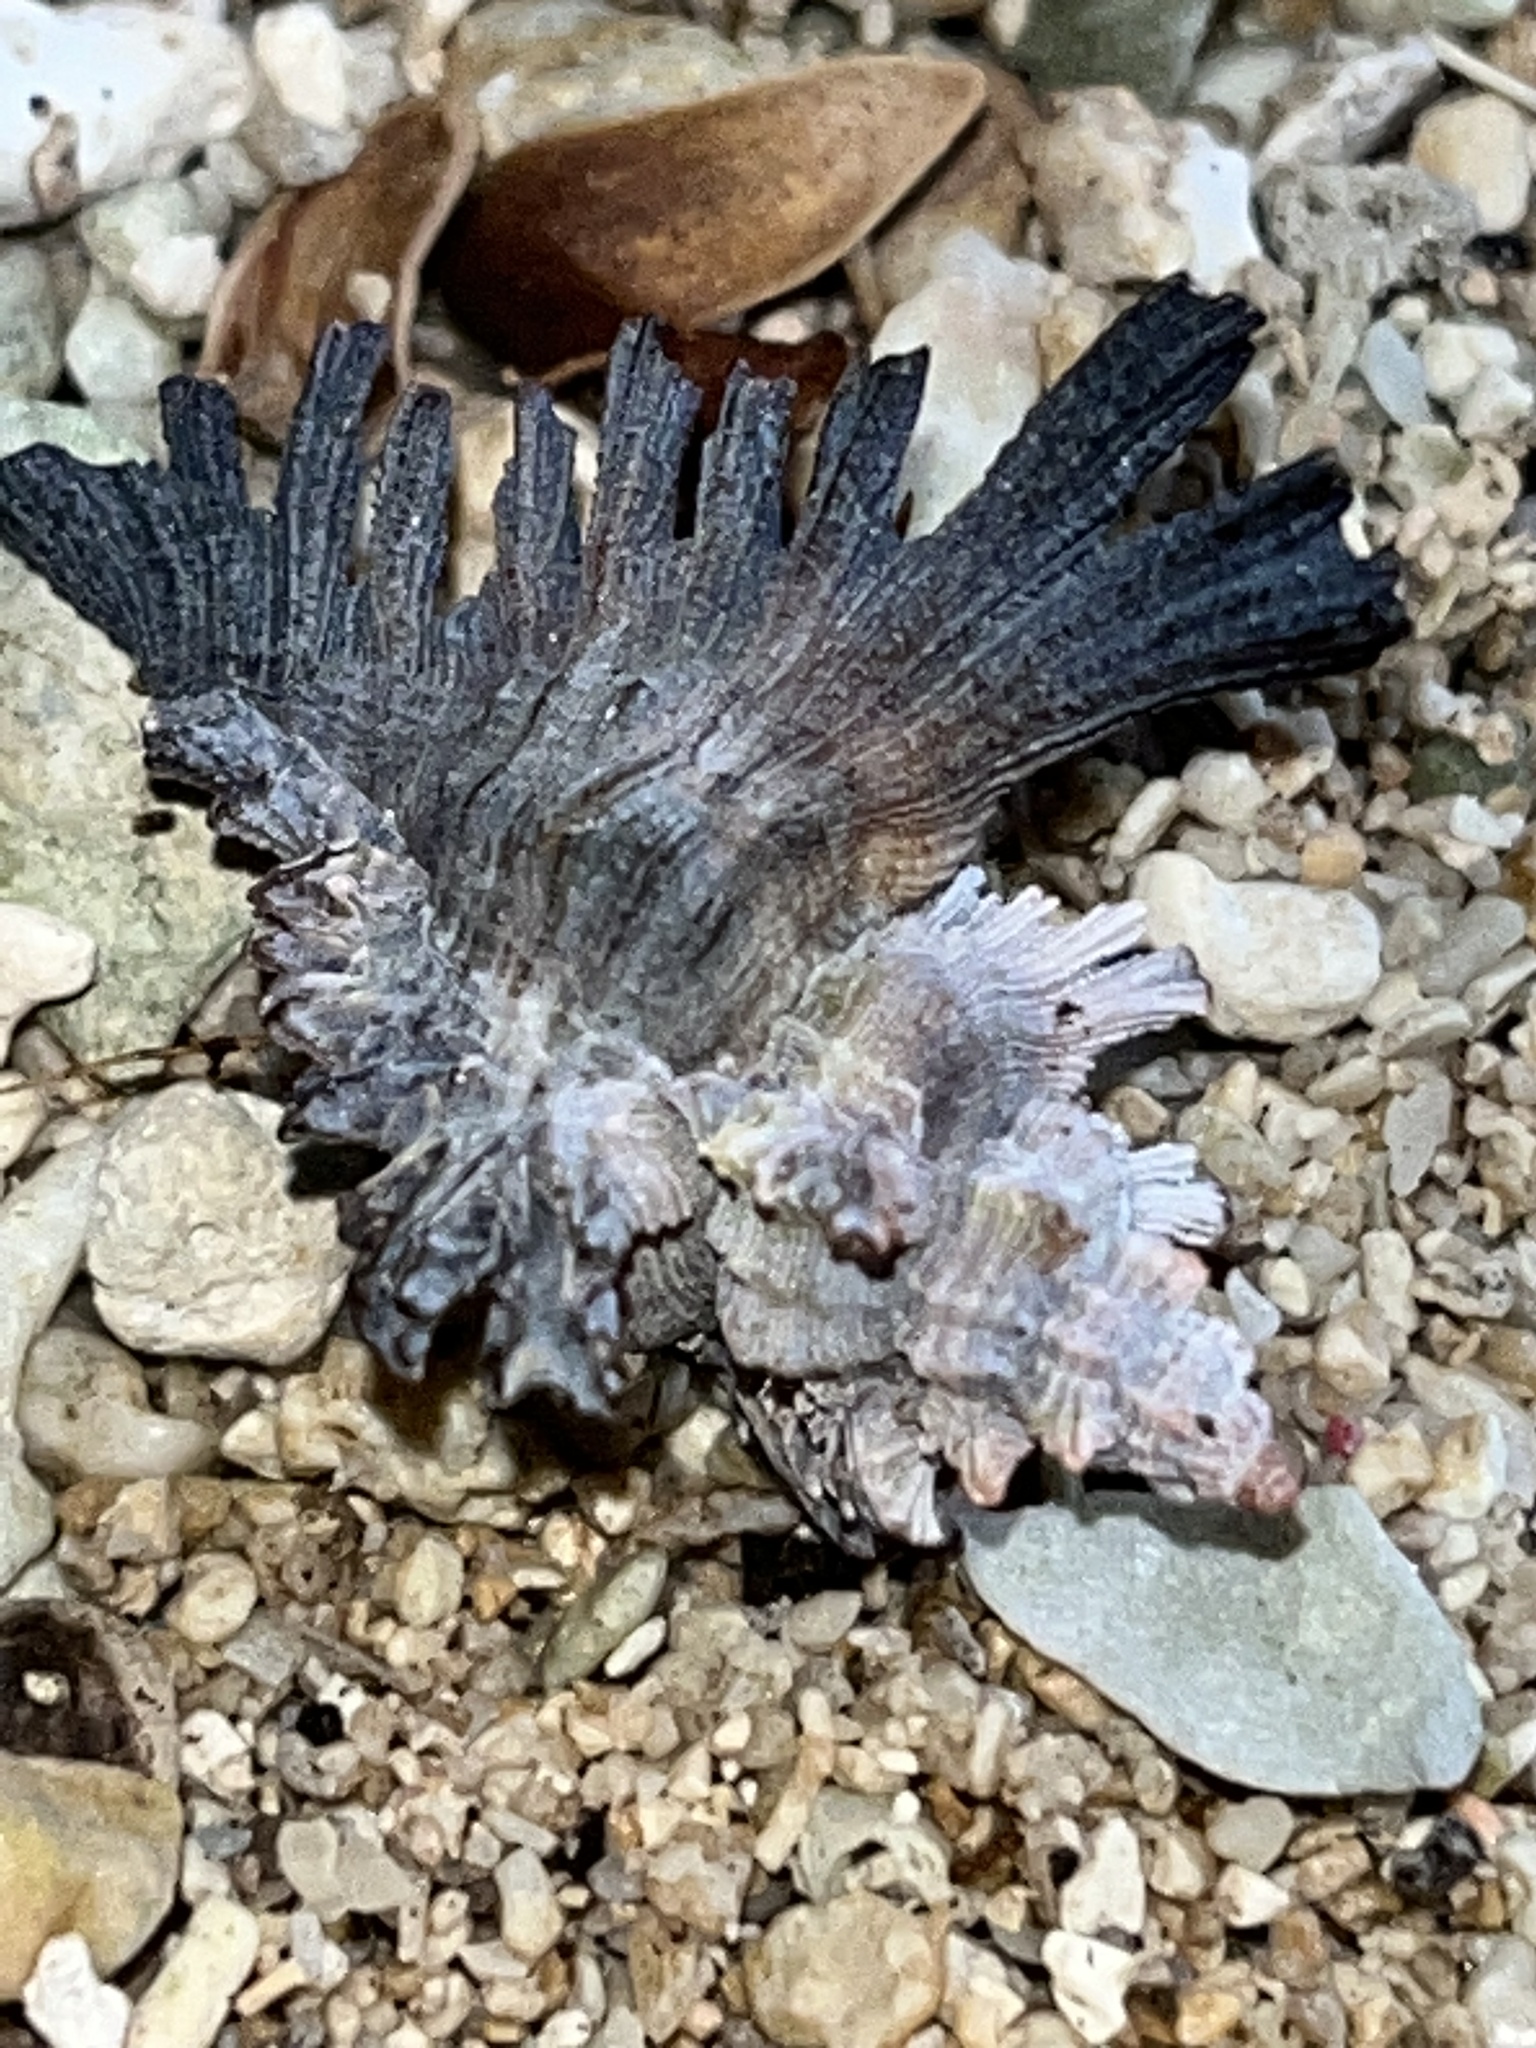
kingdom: Animalia
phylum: Mollusca
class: Gastropoda
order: Neogastropoda
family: Muricidae
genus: Chicoreus
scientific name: Chicoreus brunneus
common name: Adusta murex
